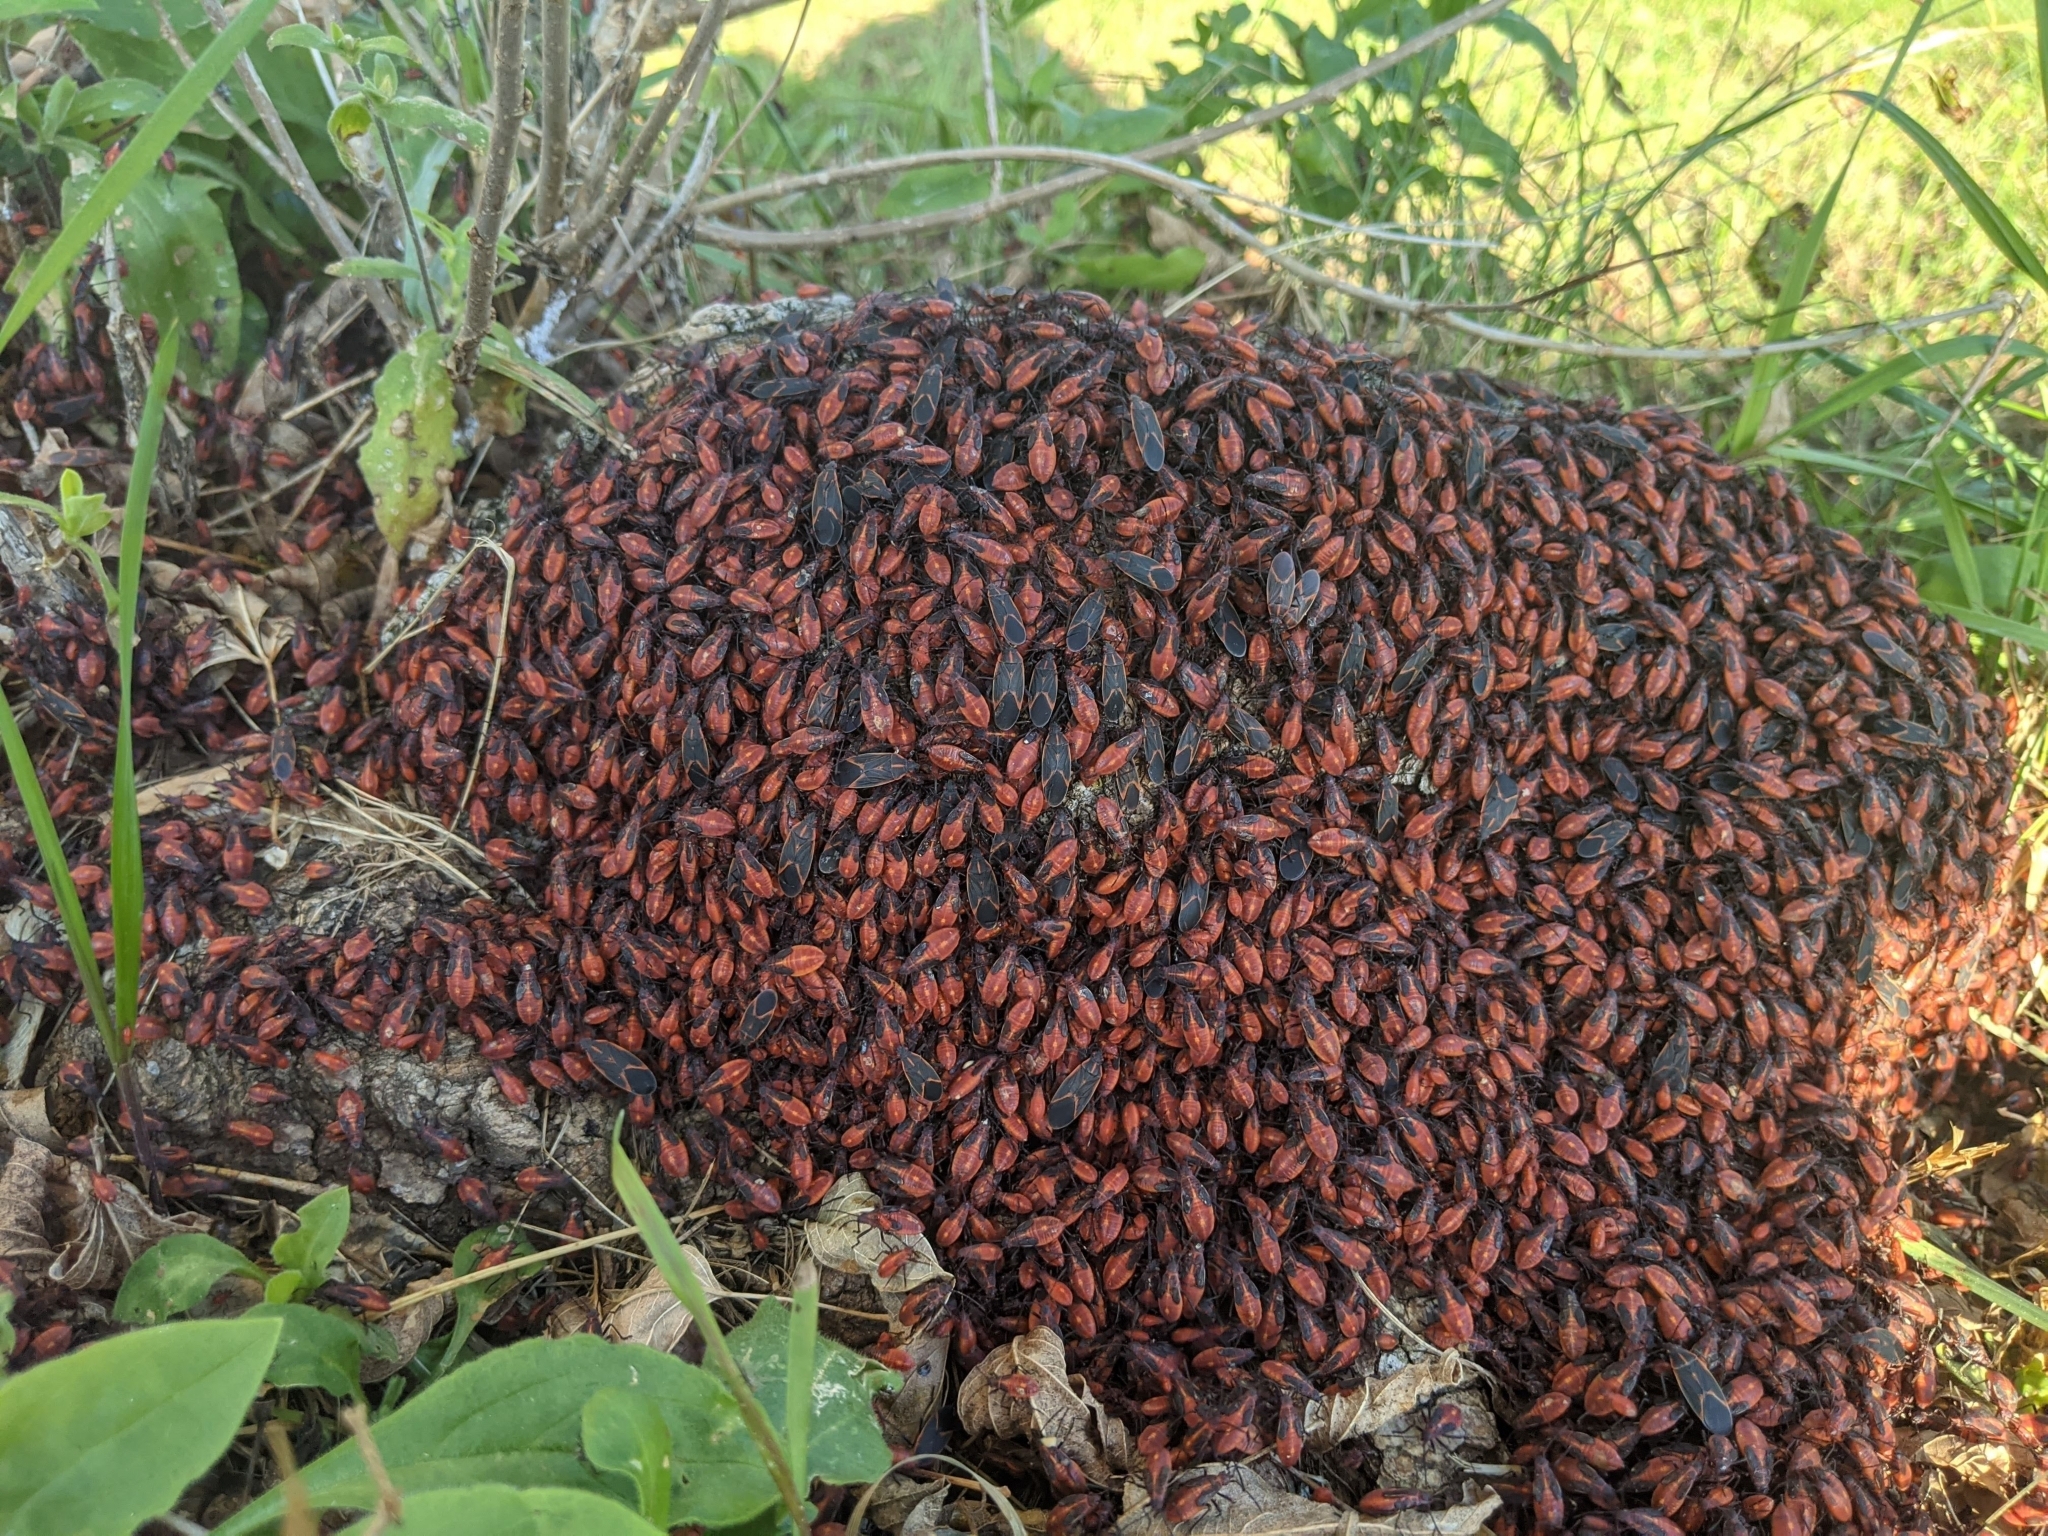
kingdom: Animalia
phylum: Arthropoda
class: Insecta
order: Hemiptera
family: Rhopalidae
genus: Boisea
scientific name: Boisea trivittata
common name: Boxelder bug
